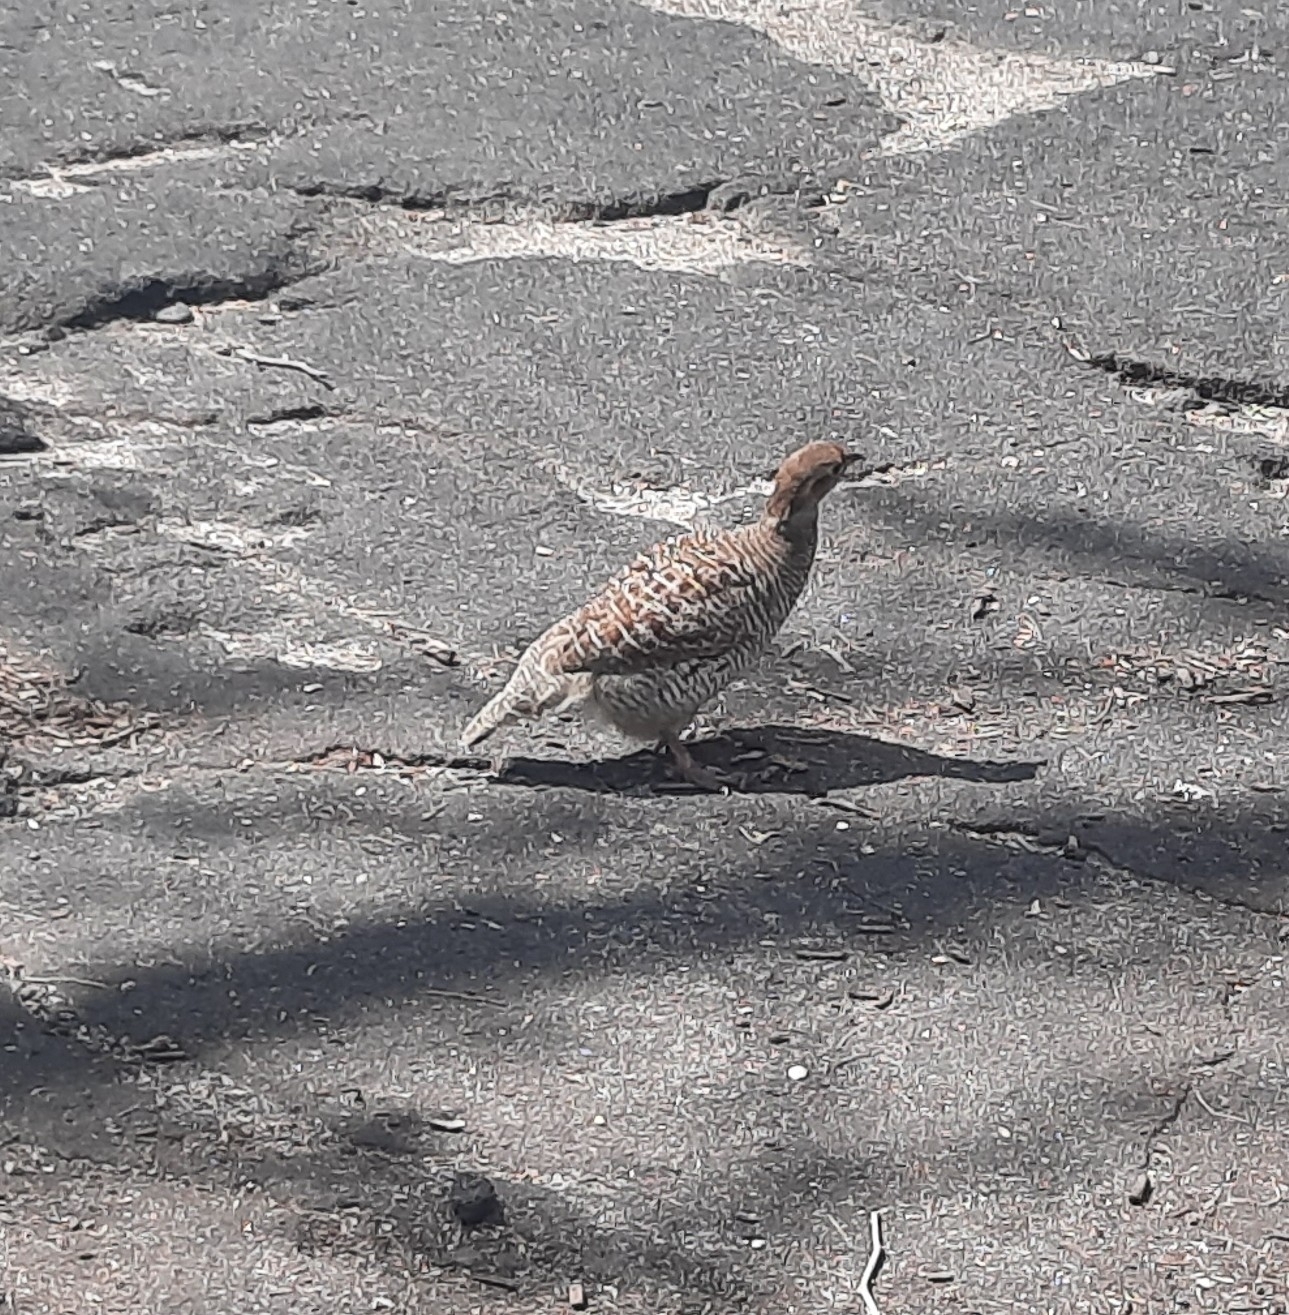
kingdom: Animalia
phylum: Chordata
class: Aves
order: Galliformes
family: Phasianidae
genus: Ortygornis
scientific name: Ortygornis pondicerianus
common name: Grey francolin
